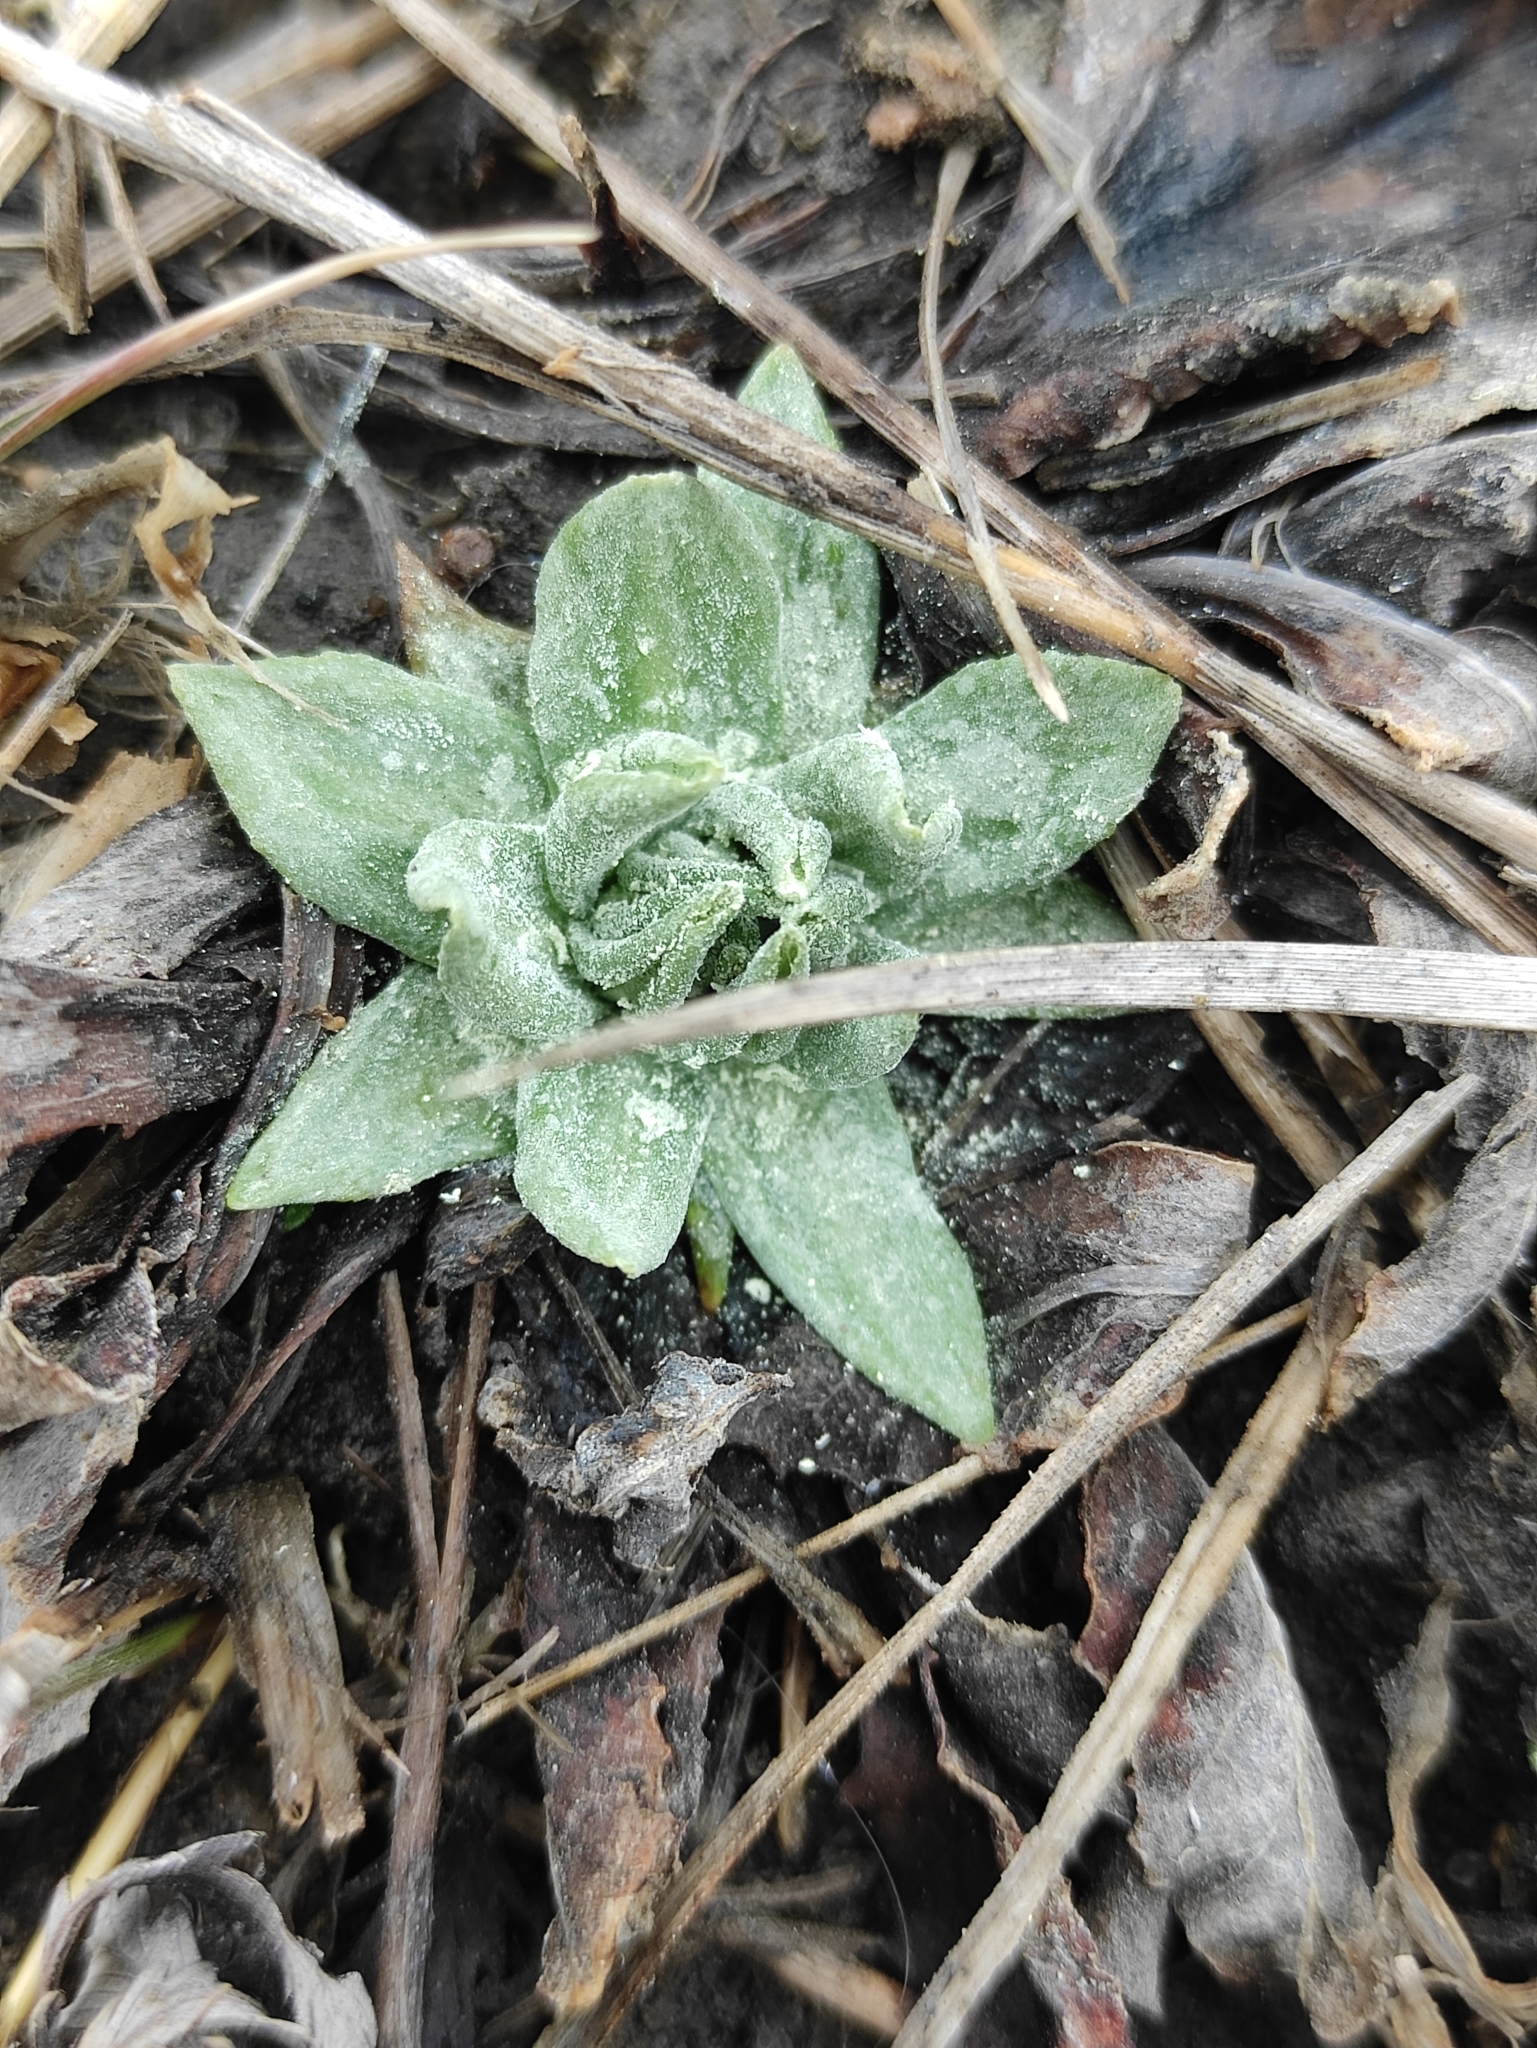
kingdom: Plantae
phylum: Tracheophyta
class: Magnoliopsida
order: Ericales
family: Primulaceae
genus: Primula
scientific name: Primula farinosa
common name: Bird's-eye primrose
